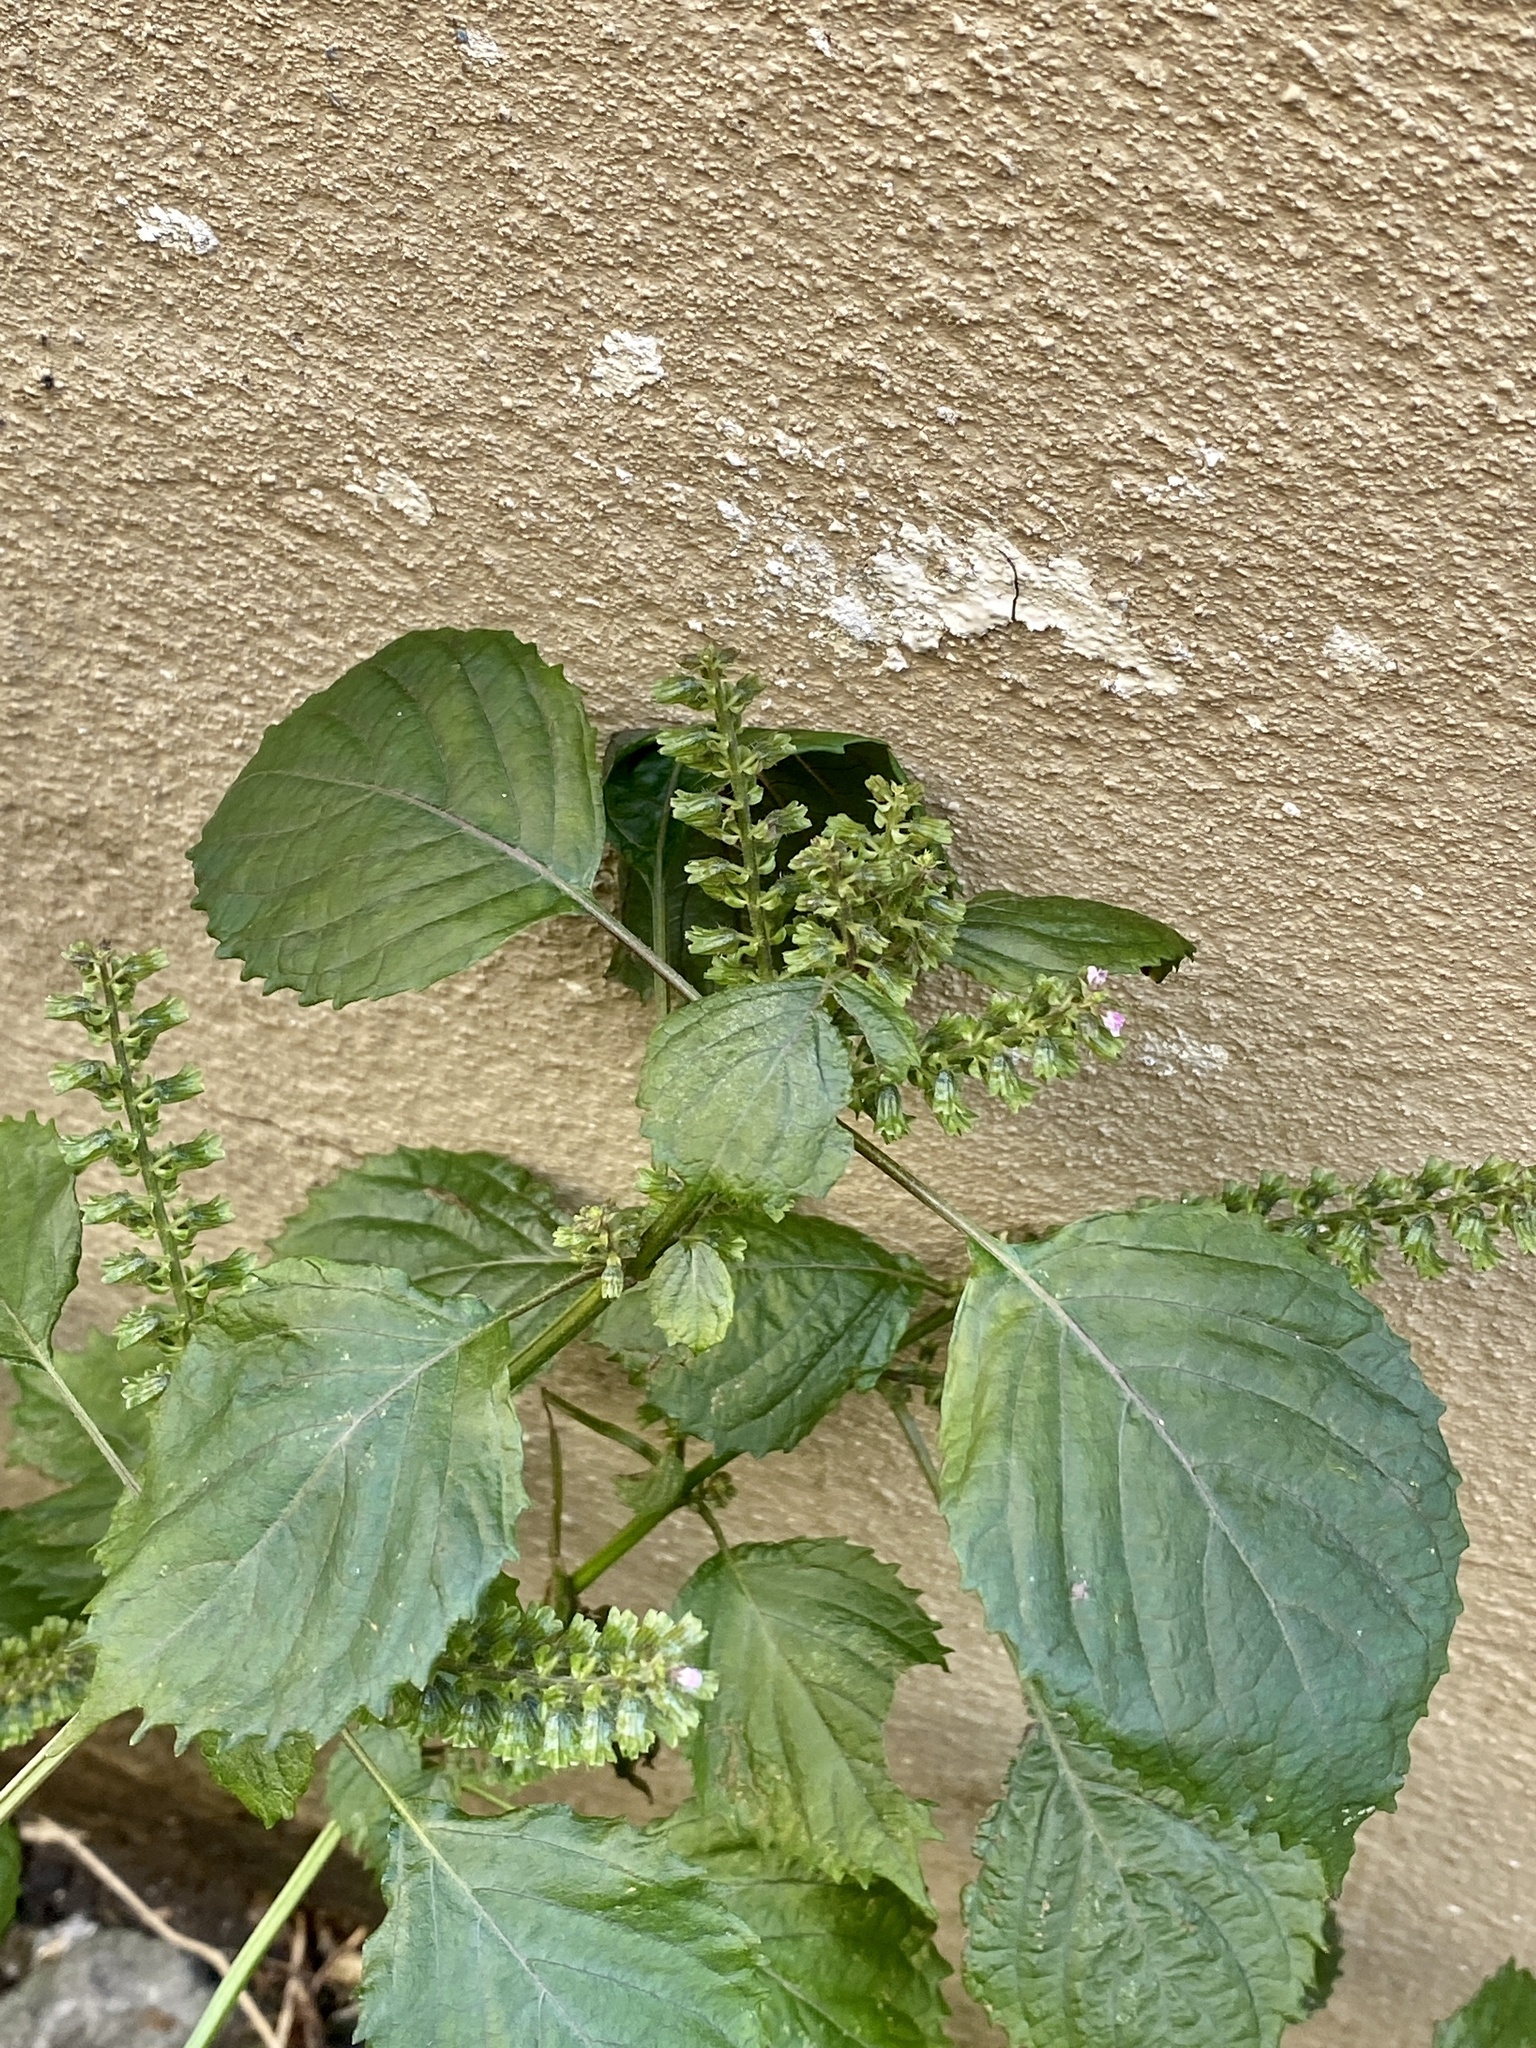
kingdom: Plantae
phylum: Tracheophyta
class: Magnoliopsida
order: Lamiales
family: Lamiaceae
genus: Perilla
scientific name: Perilla frutescens
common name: Perilla
